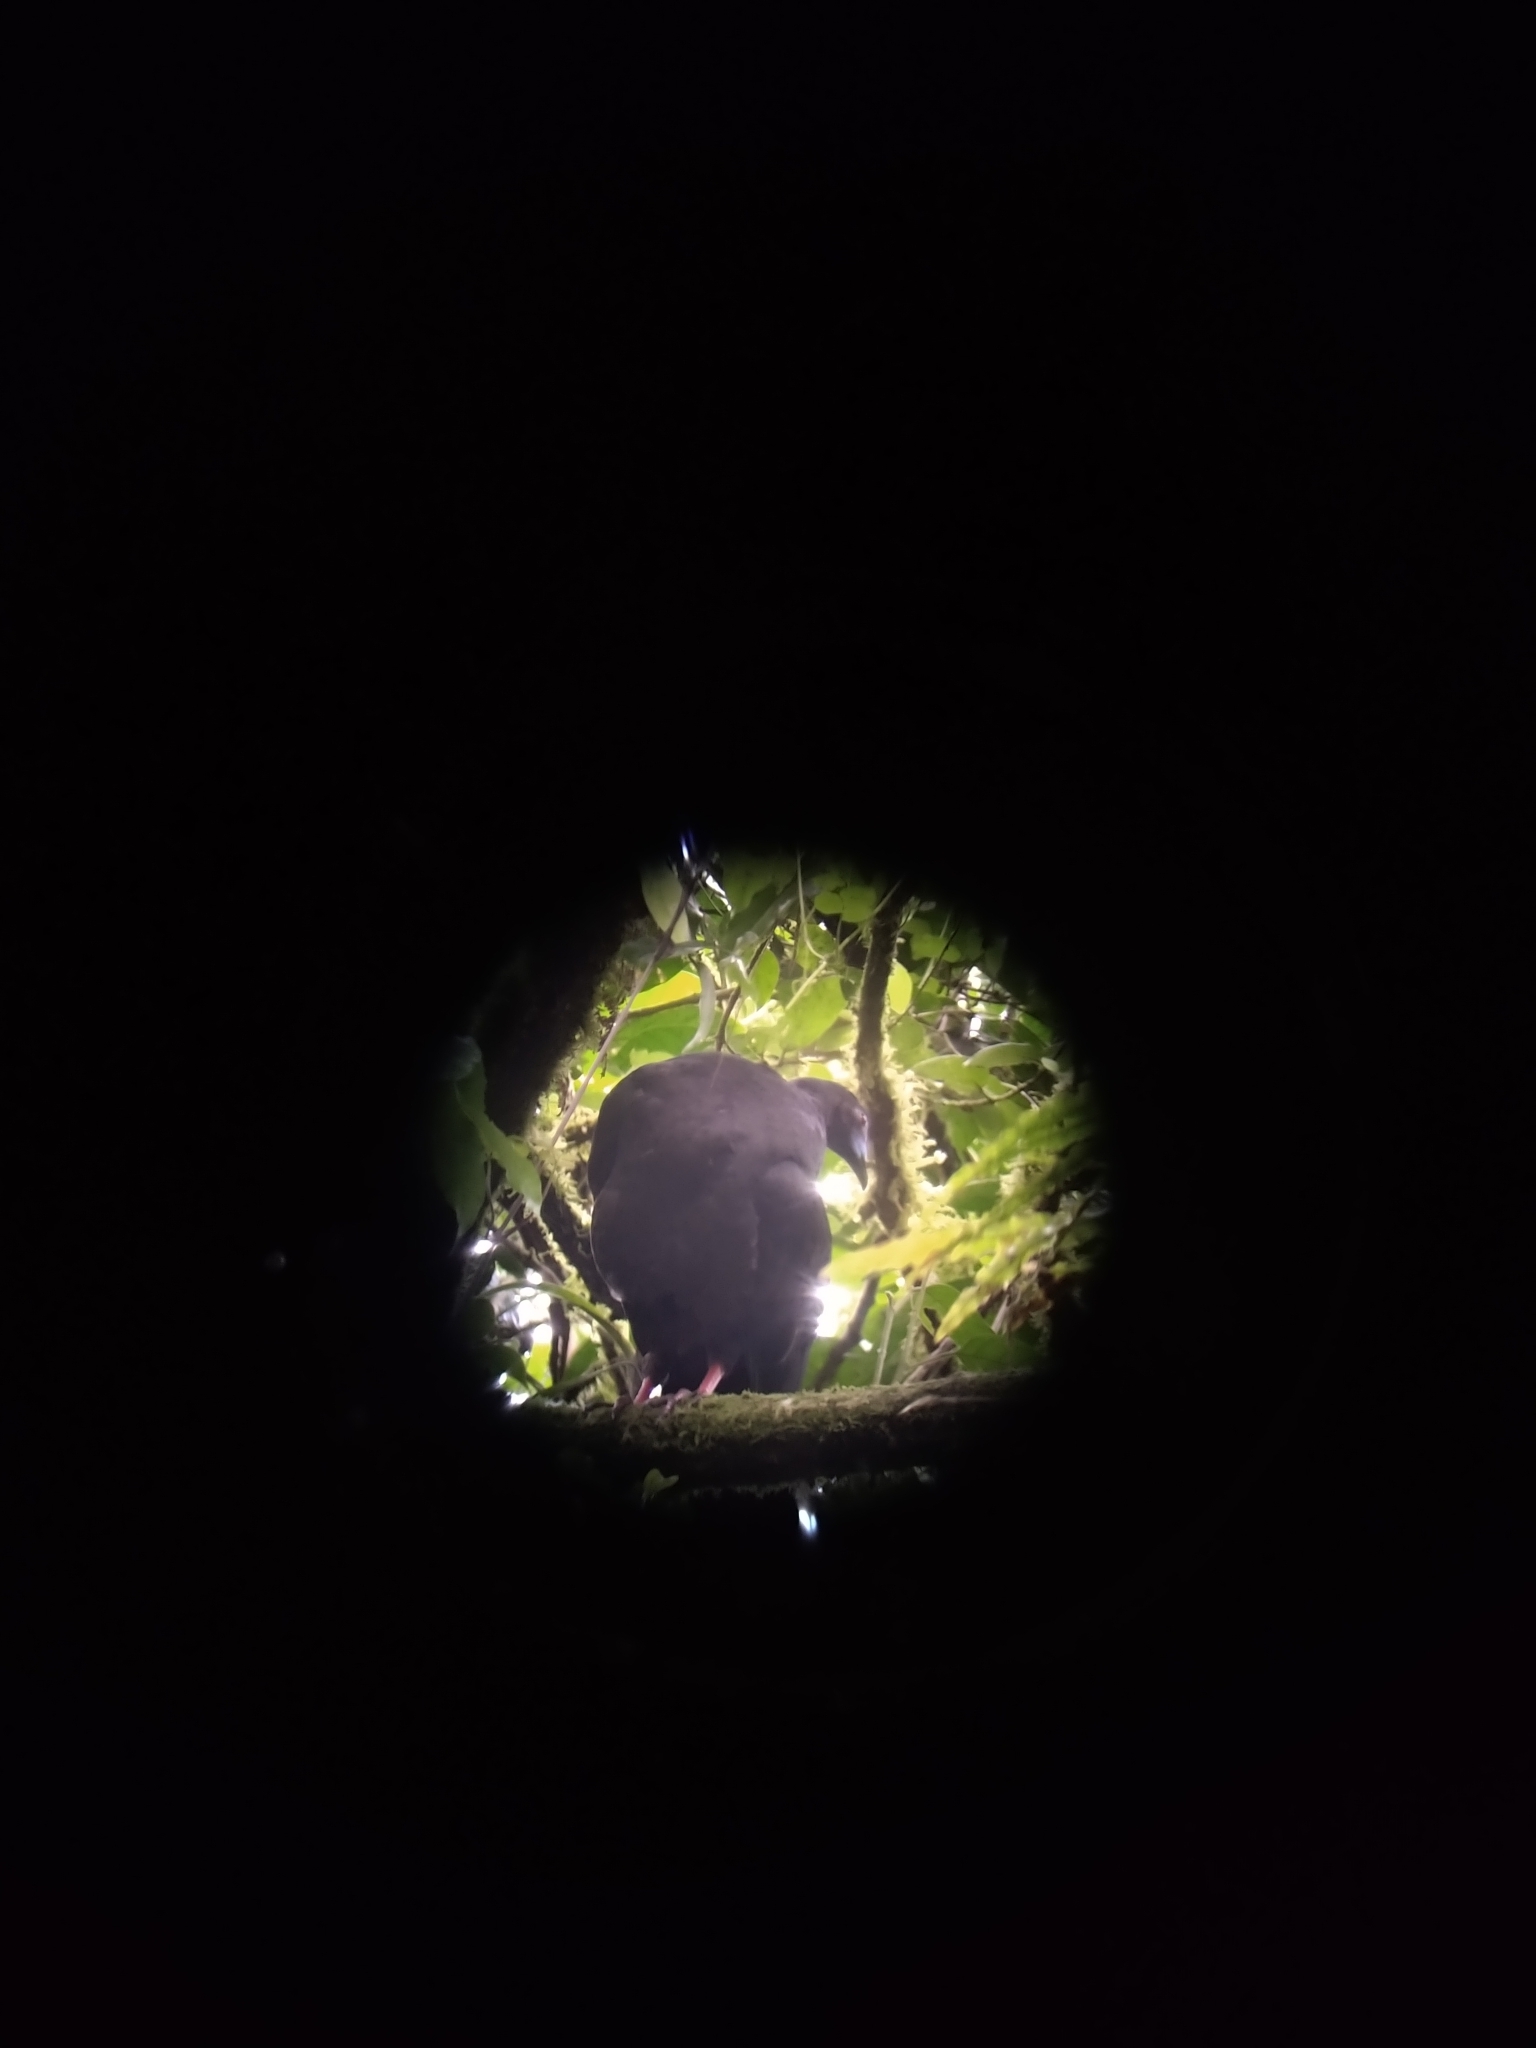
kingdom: Animalia
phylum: Chordata
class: Aves
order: Galliformes
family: Cracidae
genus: Chamaepetes
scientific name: Chamaepetes unicolor
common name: Black guan
